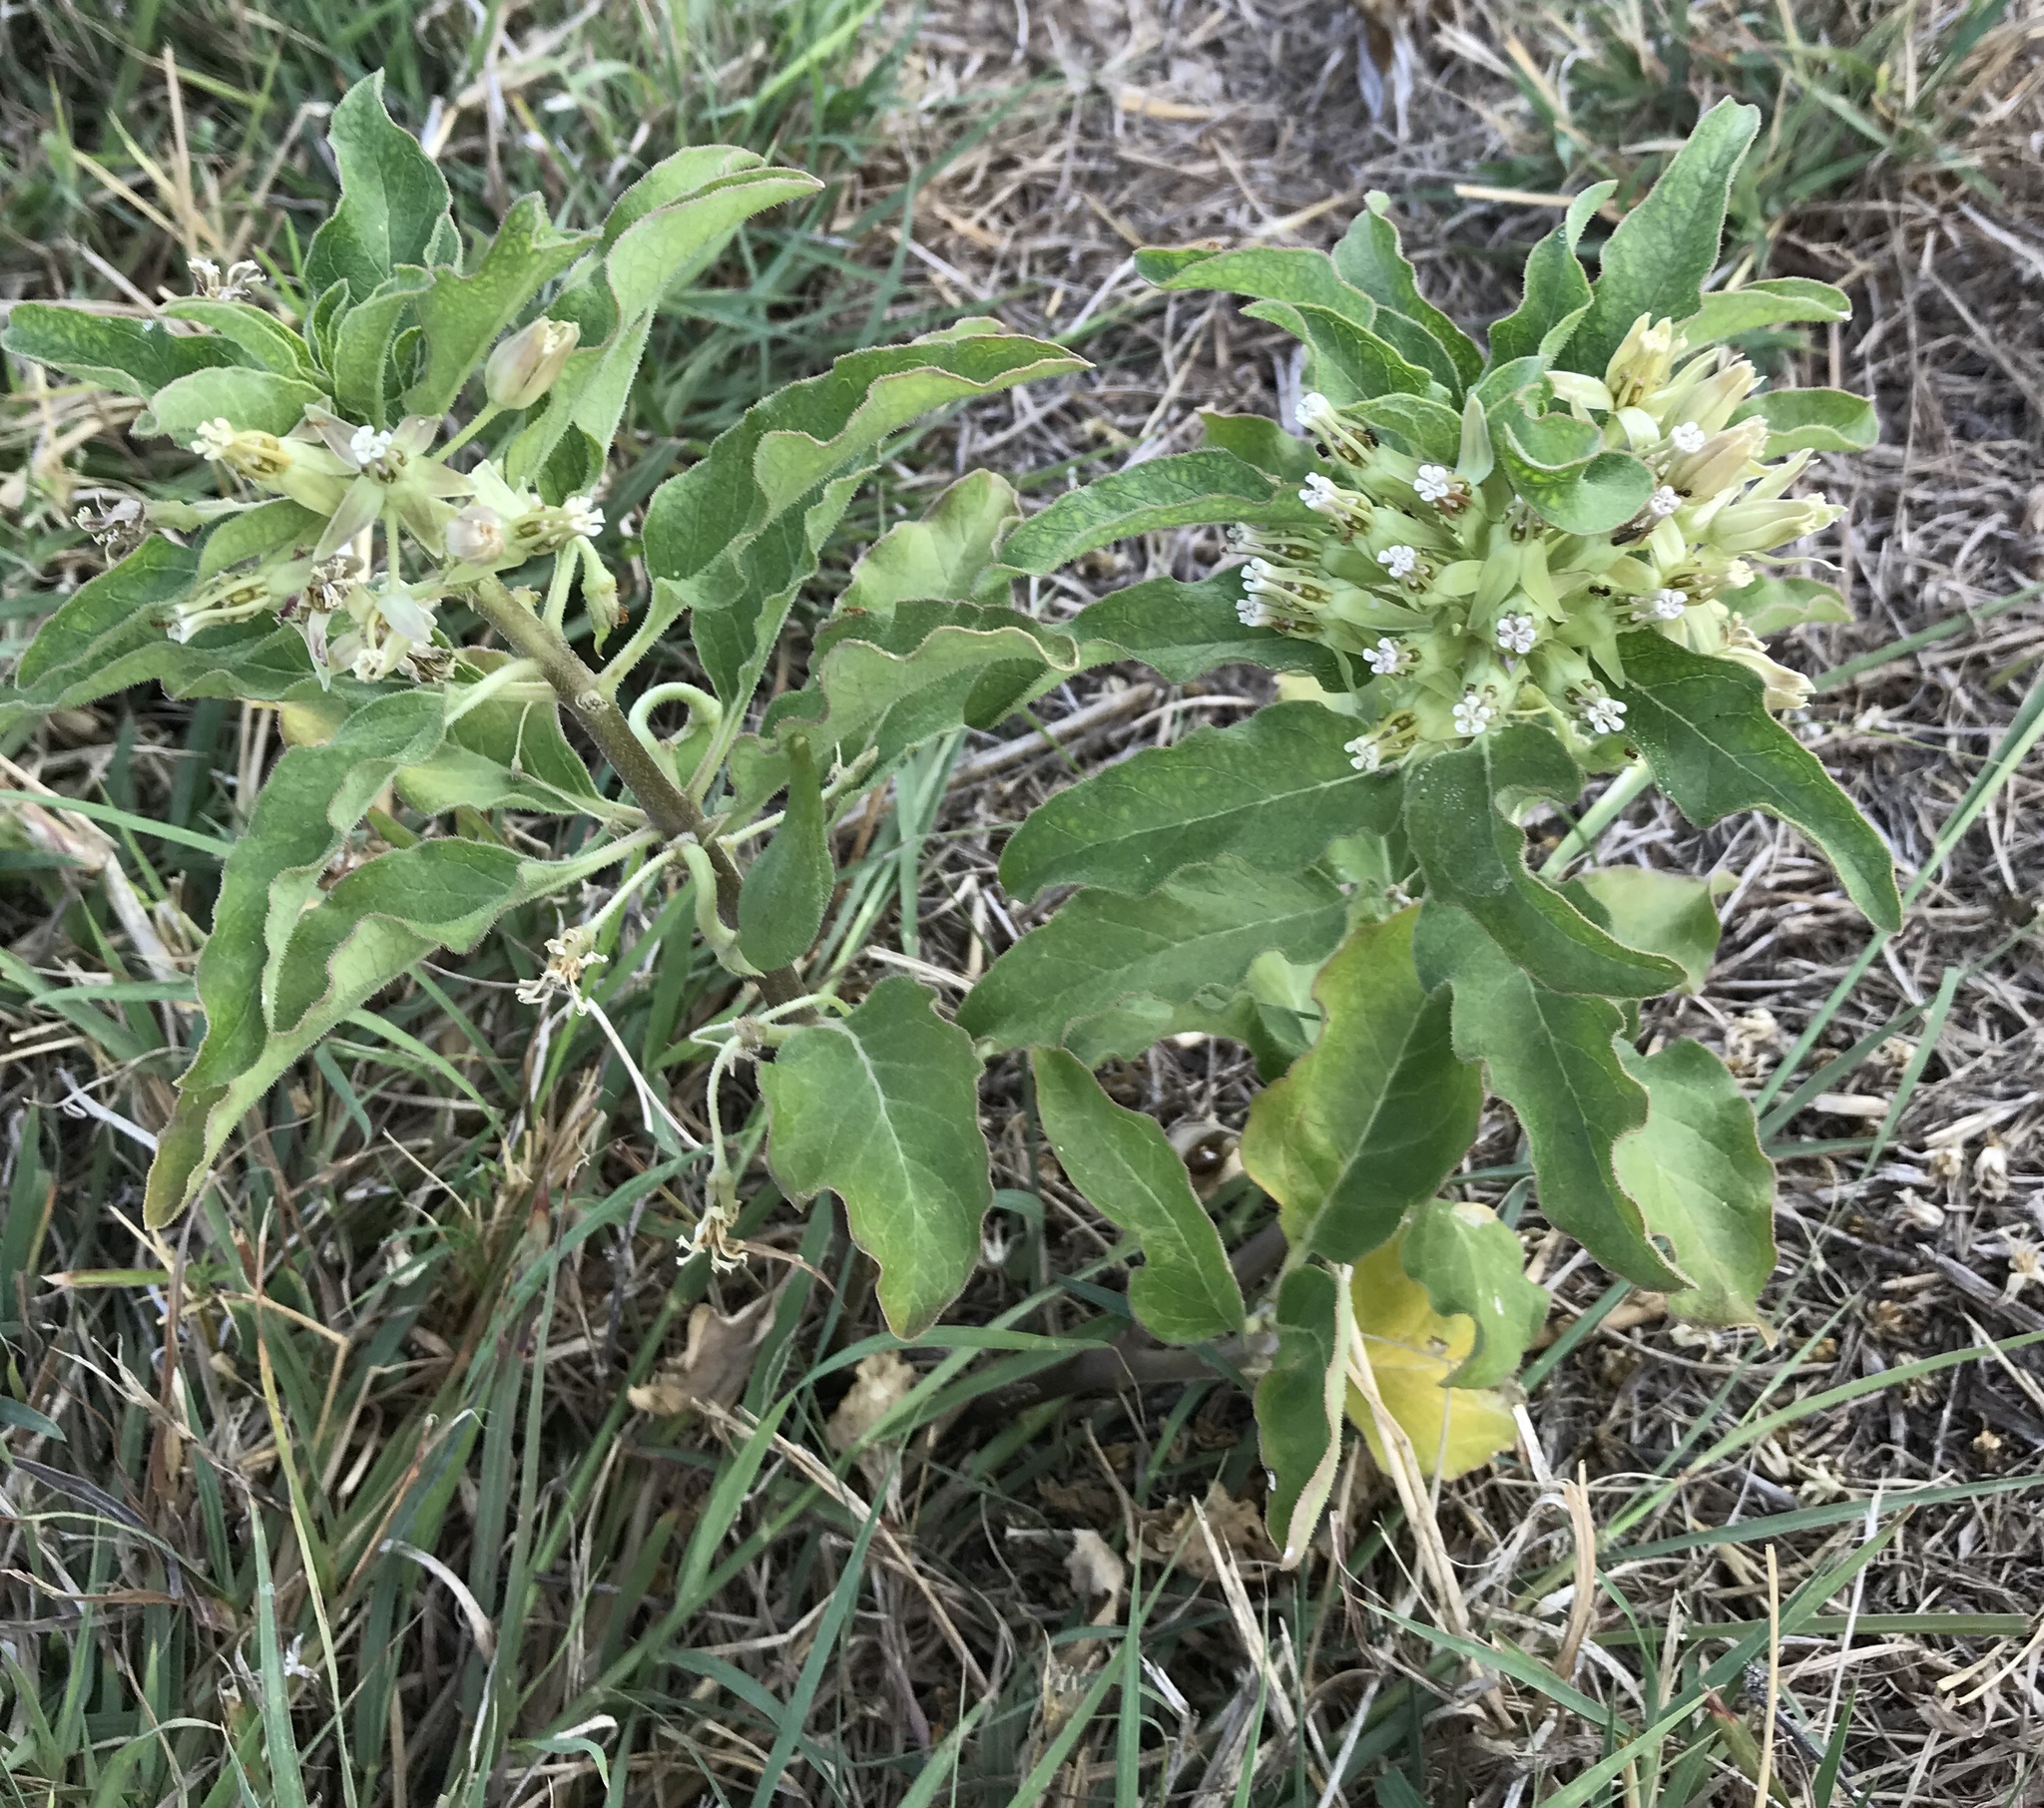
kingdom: Plantae
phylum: Tracheophyta
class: Magnoliopsida
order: Gentianales
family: Apocynaceae
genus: Asclepias
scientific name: Asclepias oenotheroides
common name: Zizotes milkweed
